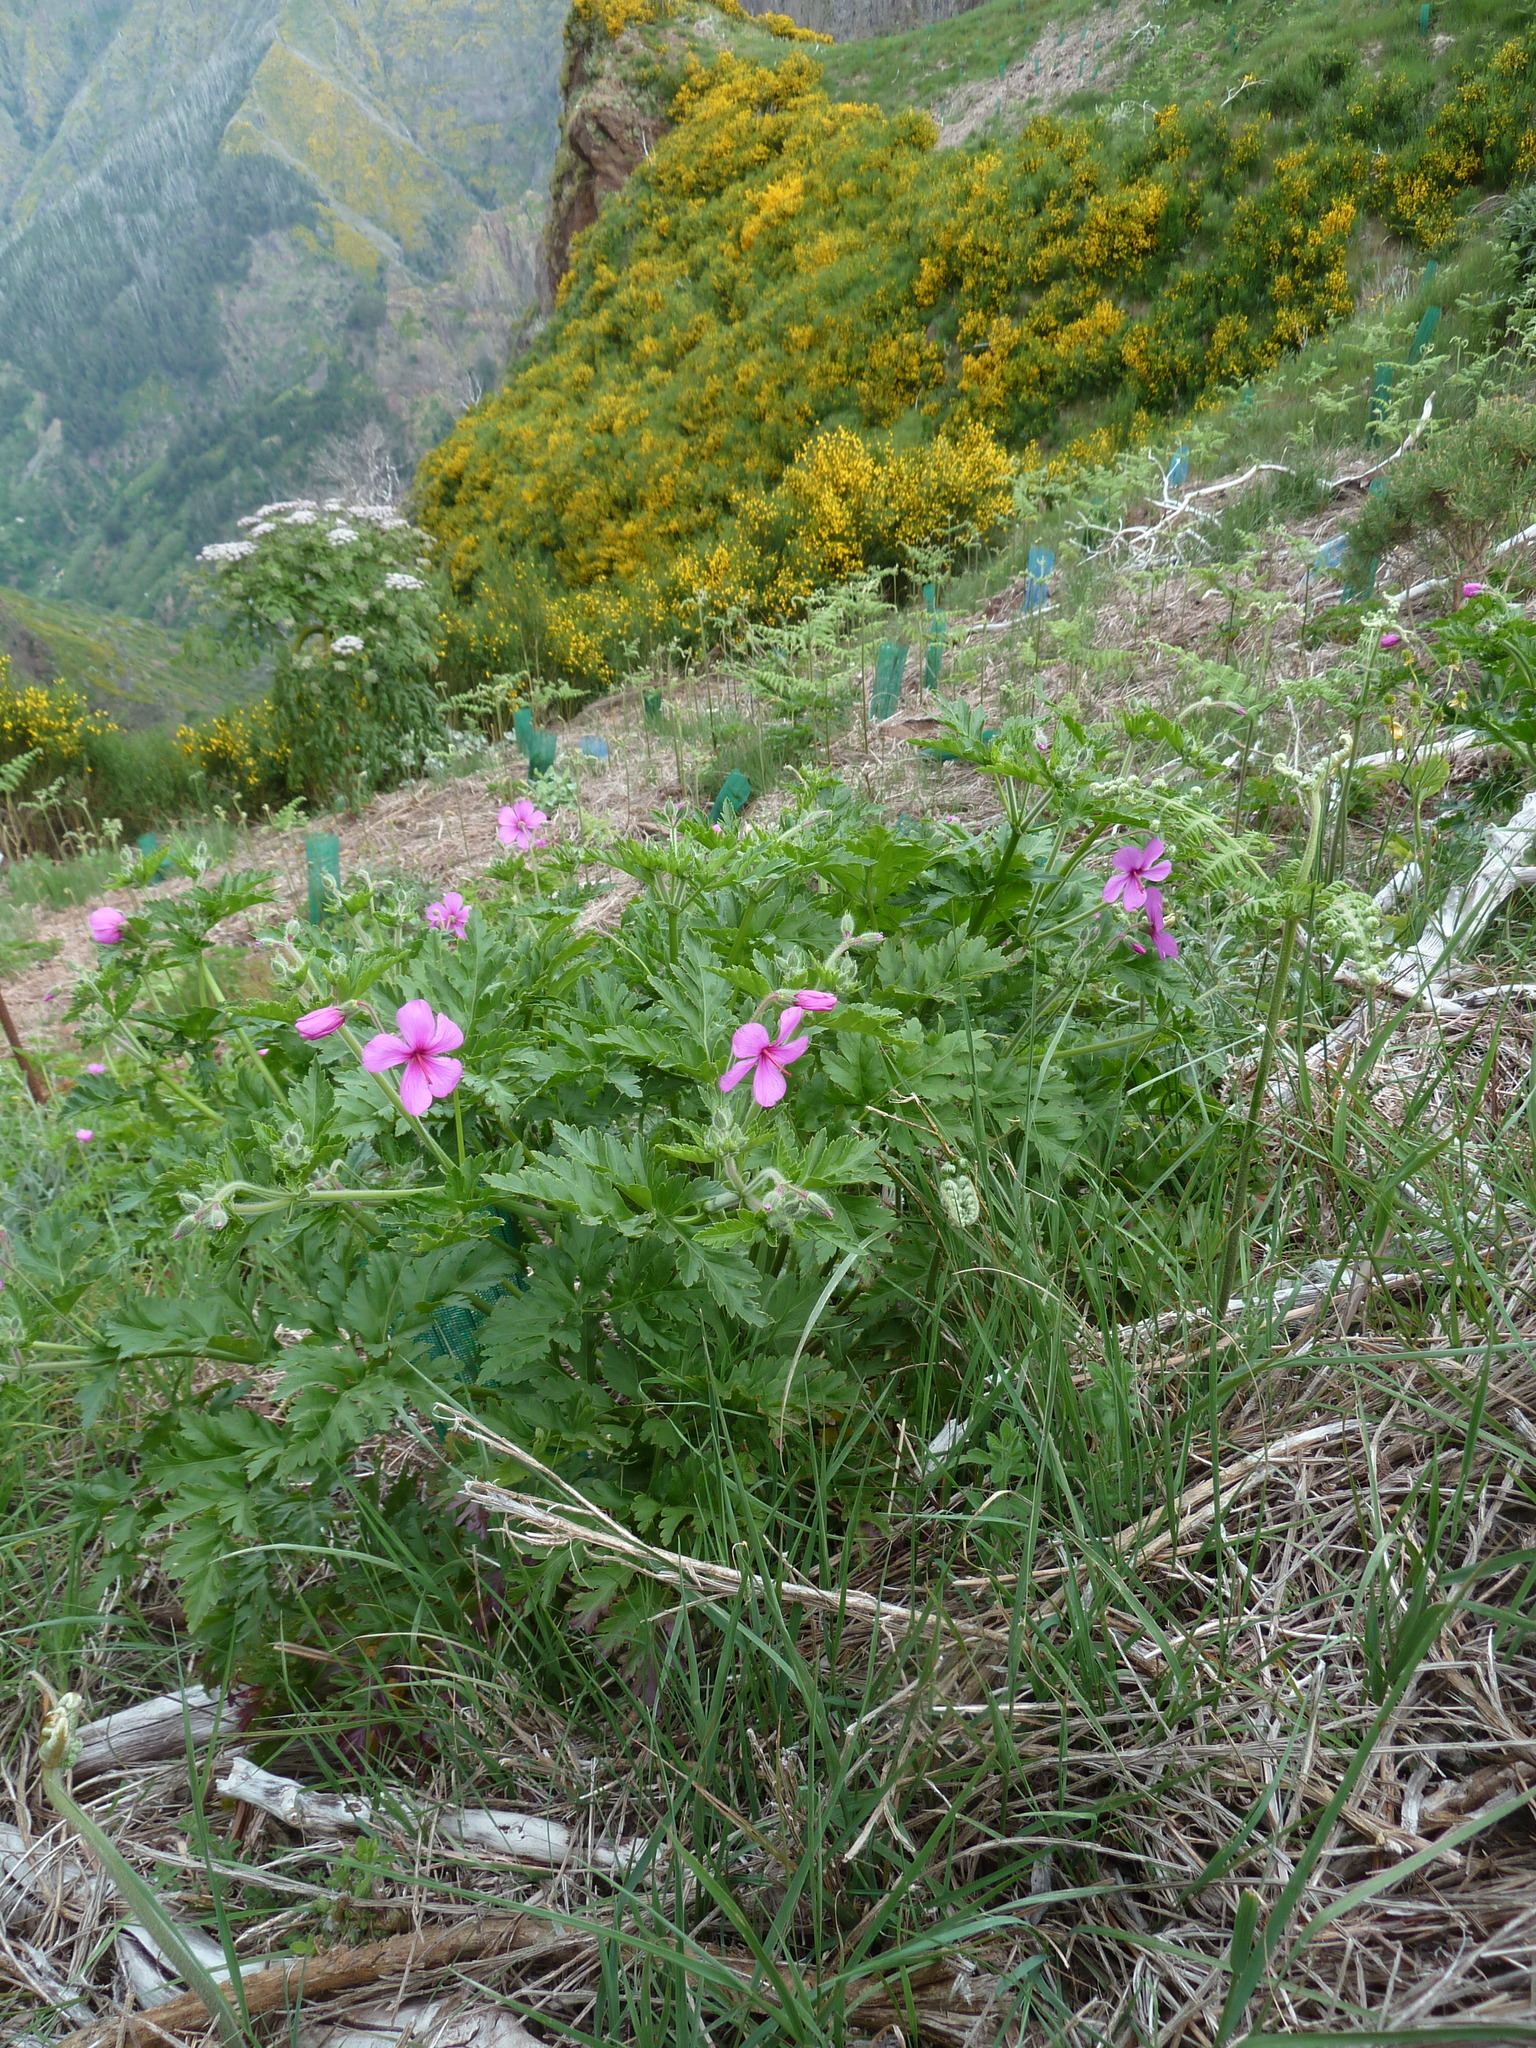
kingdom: Plantae
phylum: Tracheophyta
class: Magnoliopsida
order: Geraniales
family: Geraniaceae
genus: Geranium
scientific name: Geranium palmatum
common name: Canary island geranium
